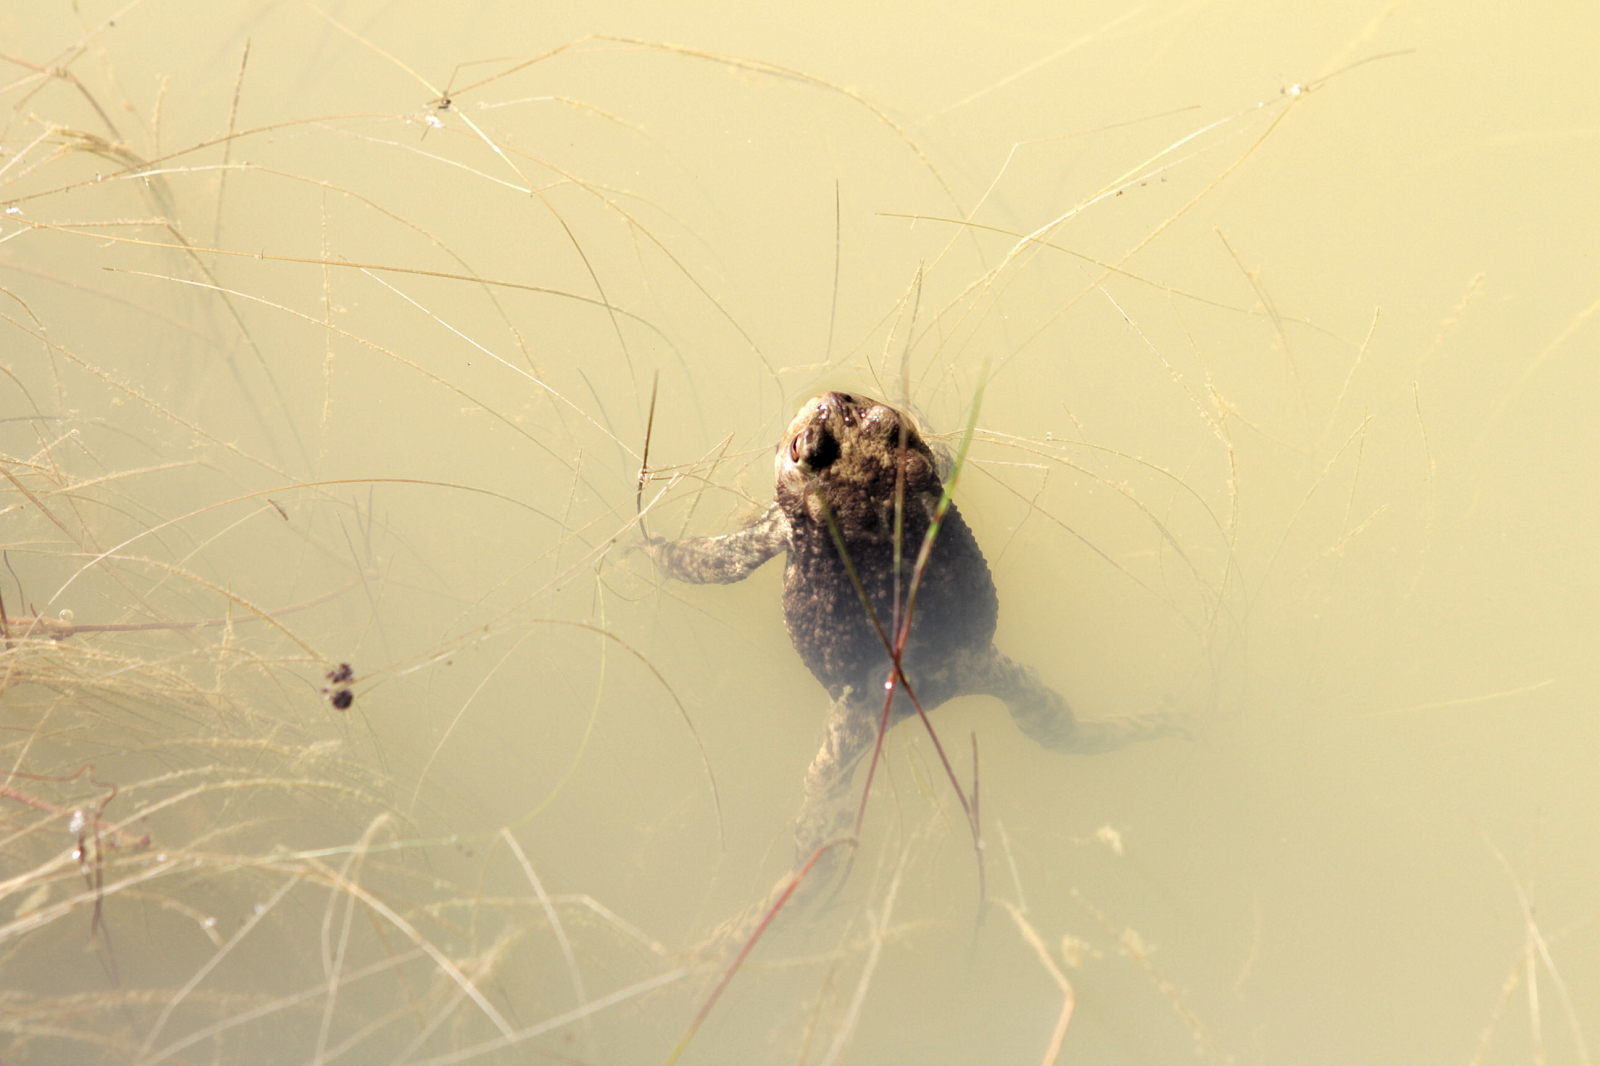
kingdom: Animalia
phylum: Chordata
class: Amphibia
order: Anura
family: Bufonidae
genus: Bufo
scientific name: Bufo bufo
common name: Common toad
